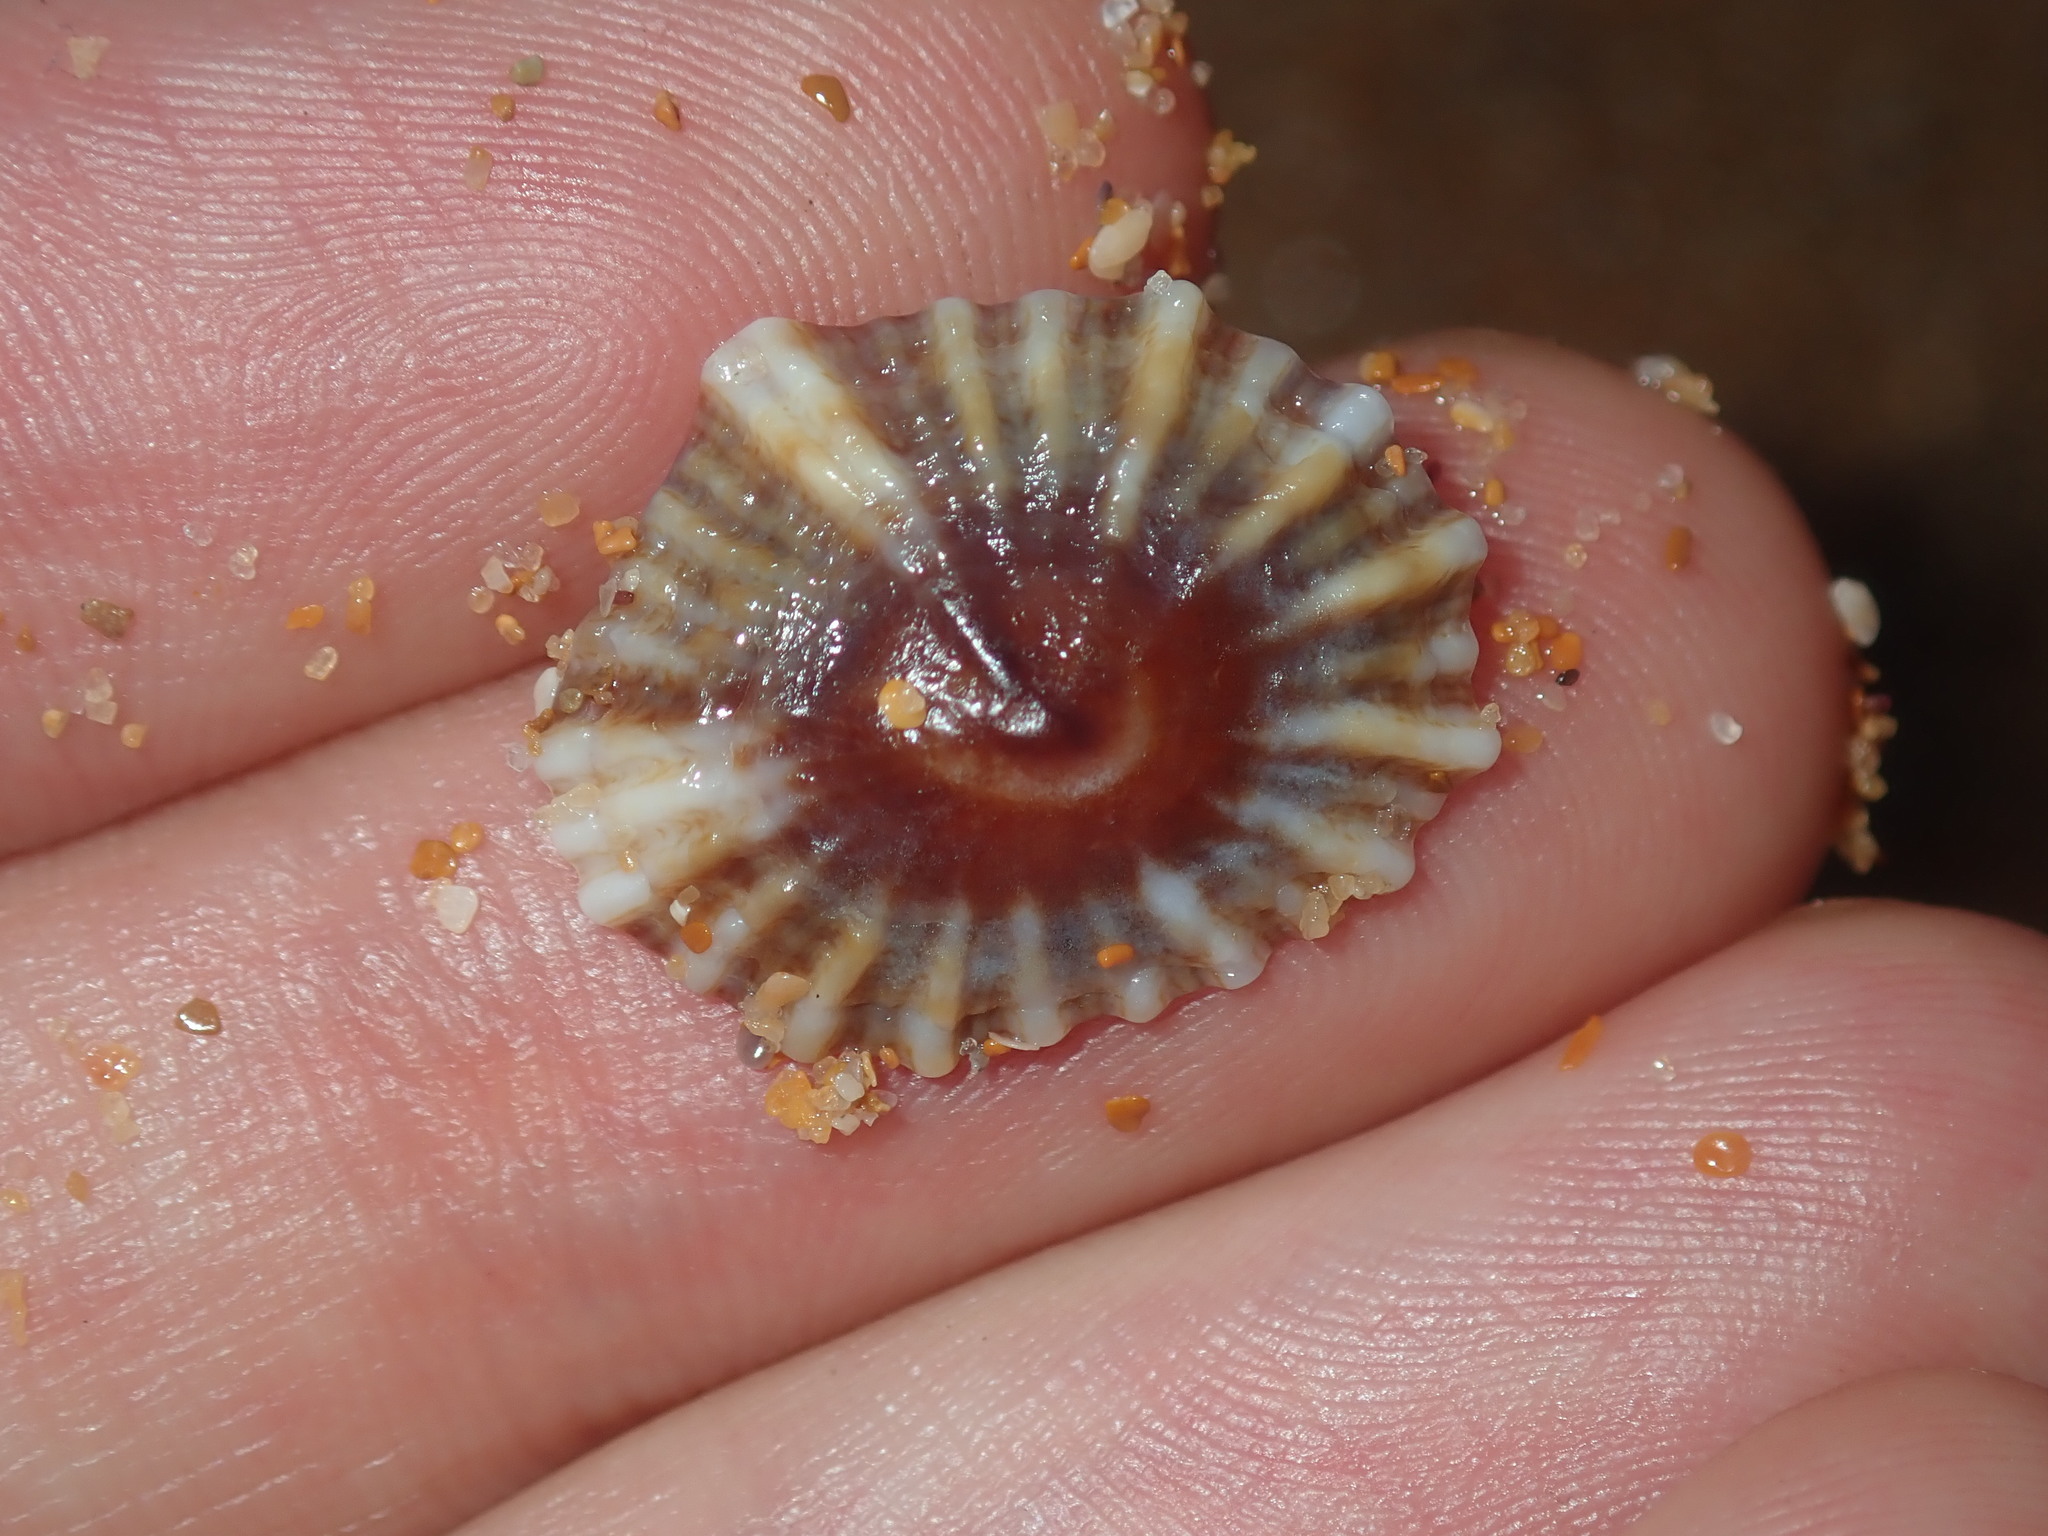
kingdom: Animalia
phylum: Mollusca
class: Gastropoda
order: Siphonariida
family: Siphonariidae
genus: Siphonaria
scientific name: Siphonaria denticulata
